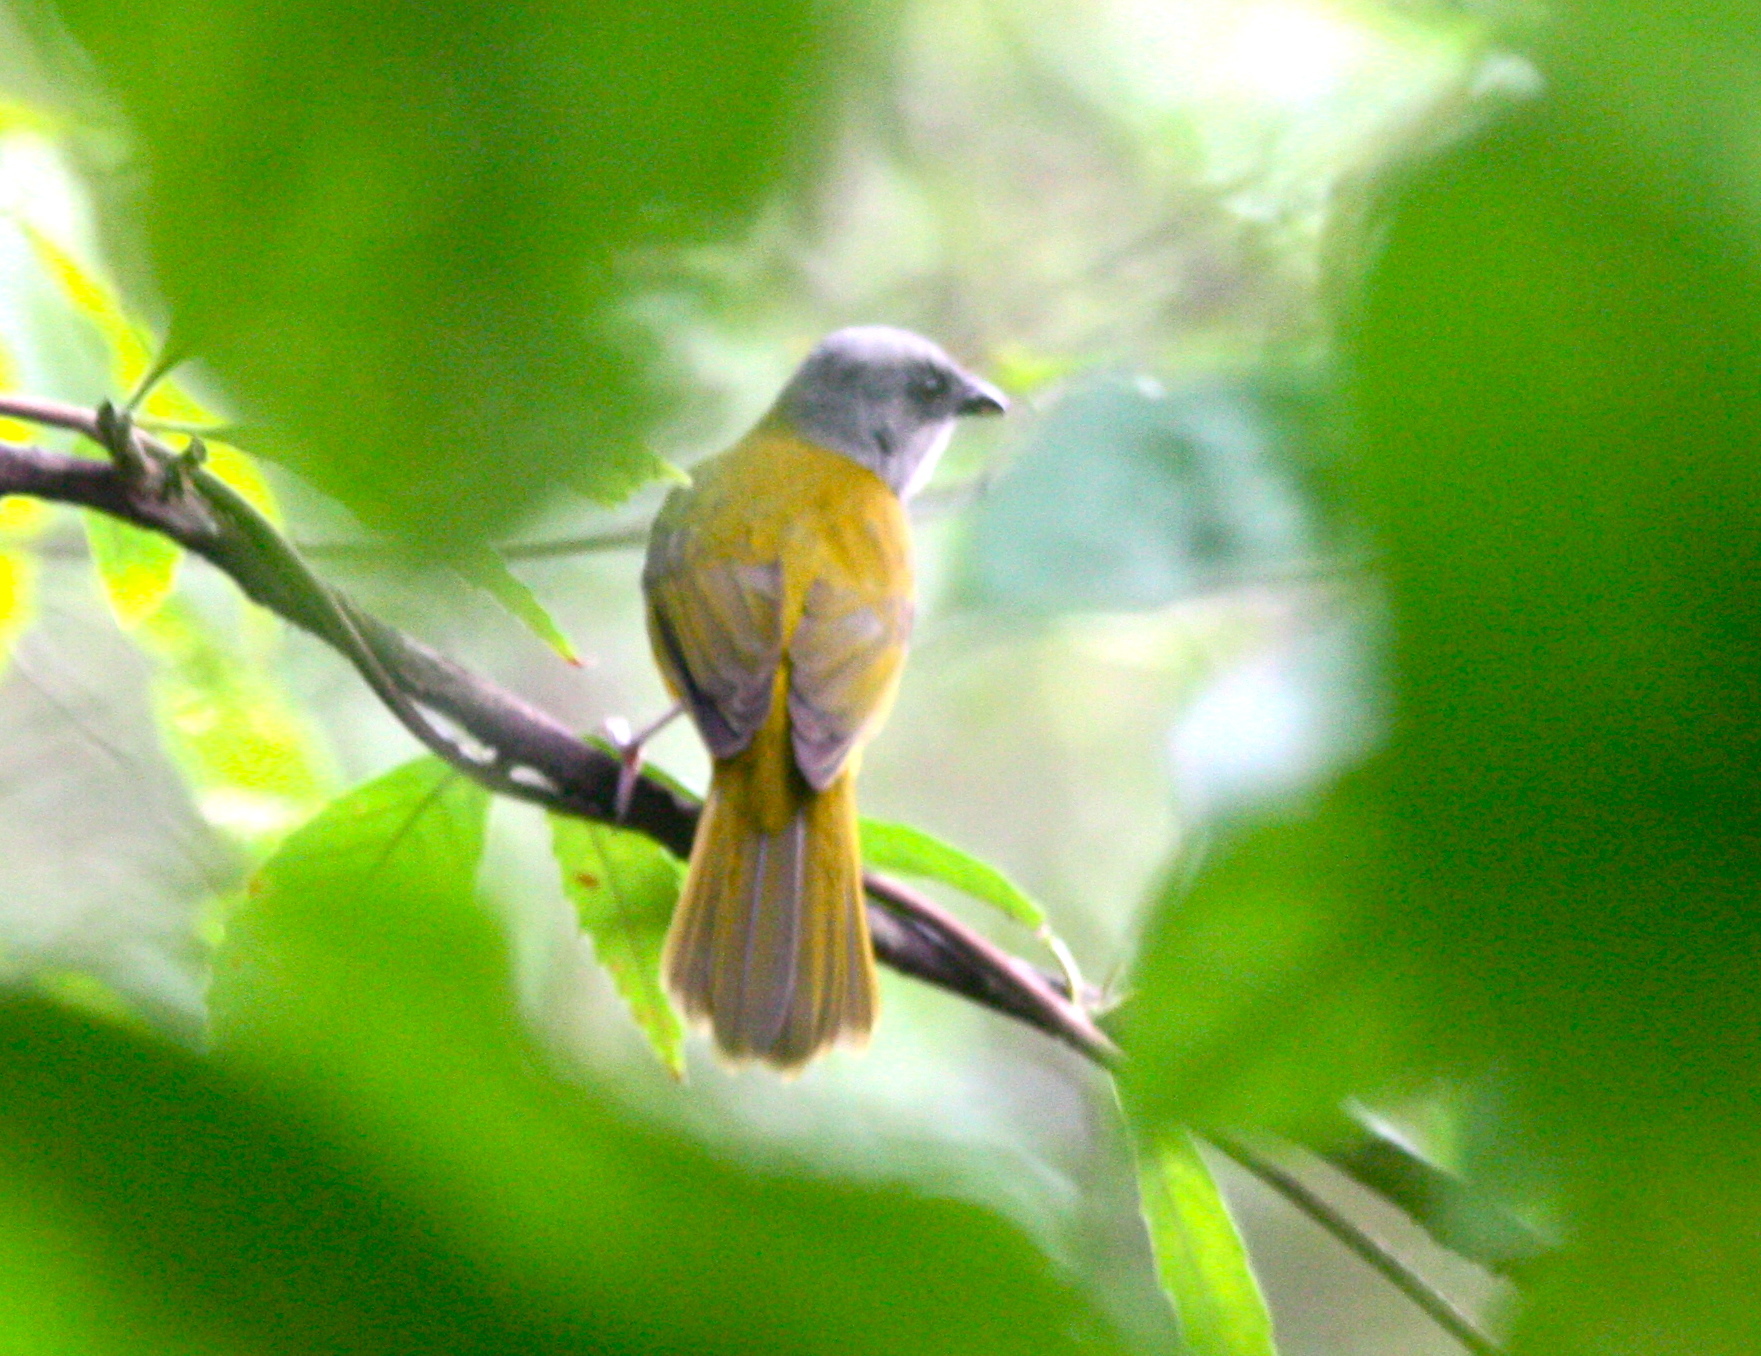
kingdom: Animalia
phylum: Chordata
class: Aves
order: Passeriformes
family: Thraupidae
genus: Eucometis
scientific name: Eucometis penicillata
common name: Grey-headed tanager
